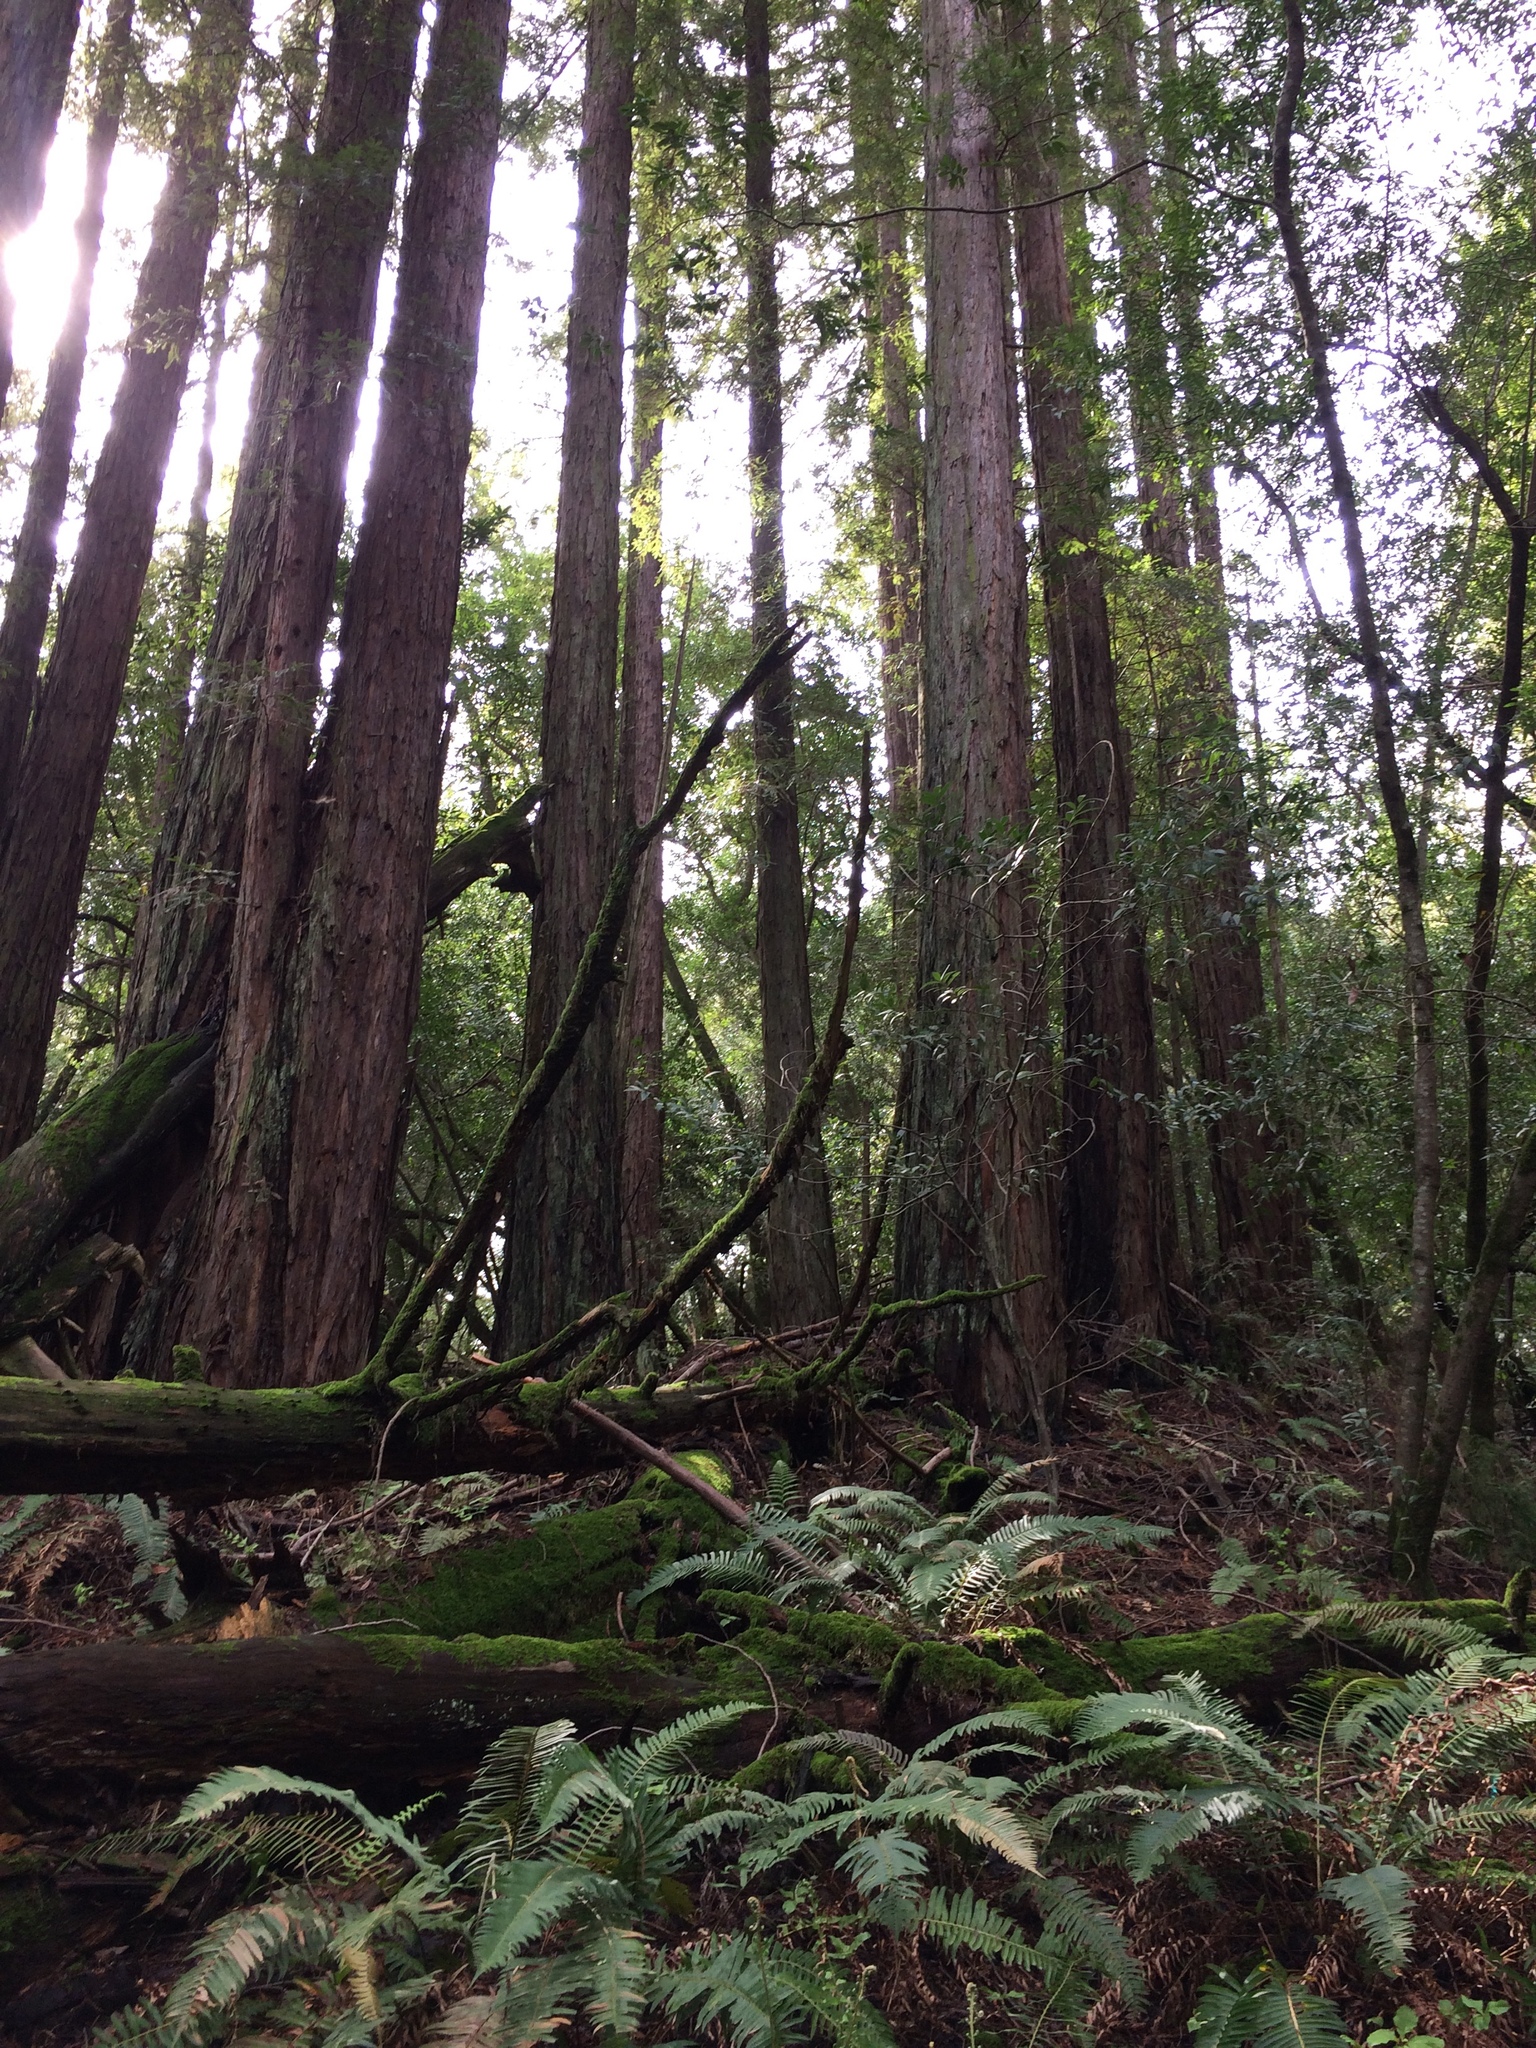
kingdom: Plantae
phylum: Tracheophyta
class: Pinopsida
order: Pinales
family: Cupressaceae
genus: Sequoia
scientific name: Sequoia sempervirens
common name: Coast redwood
